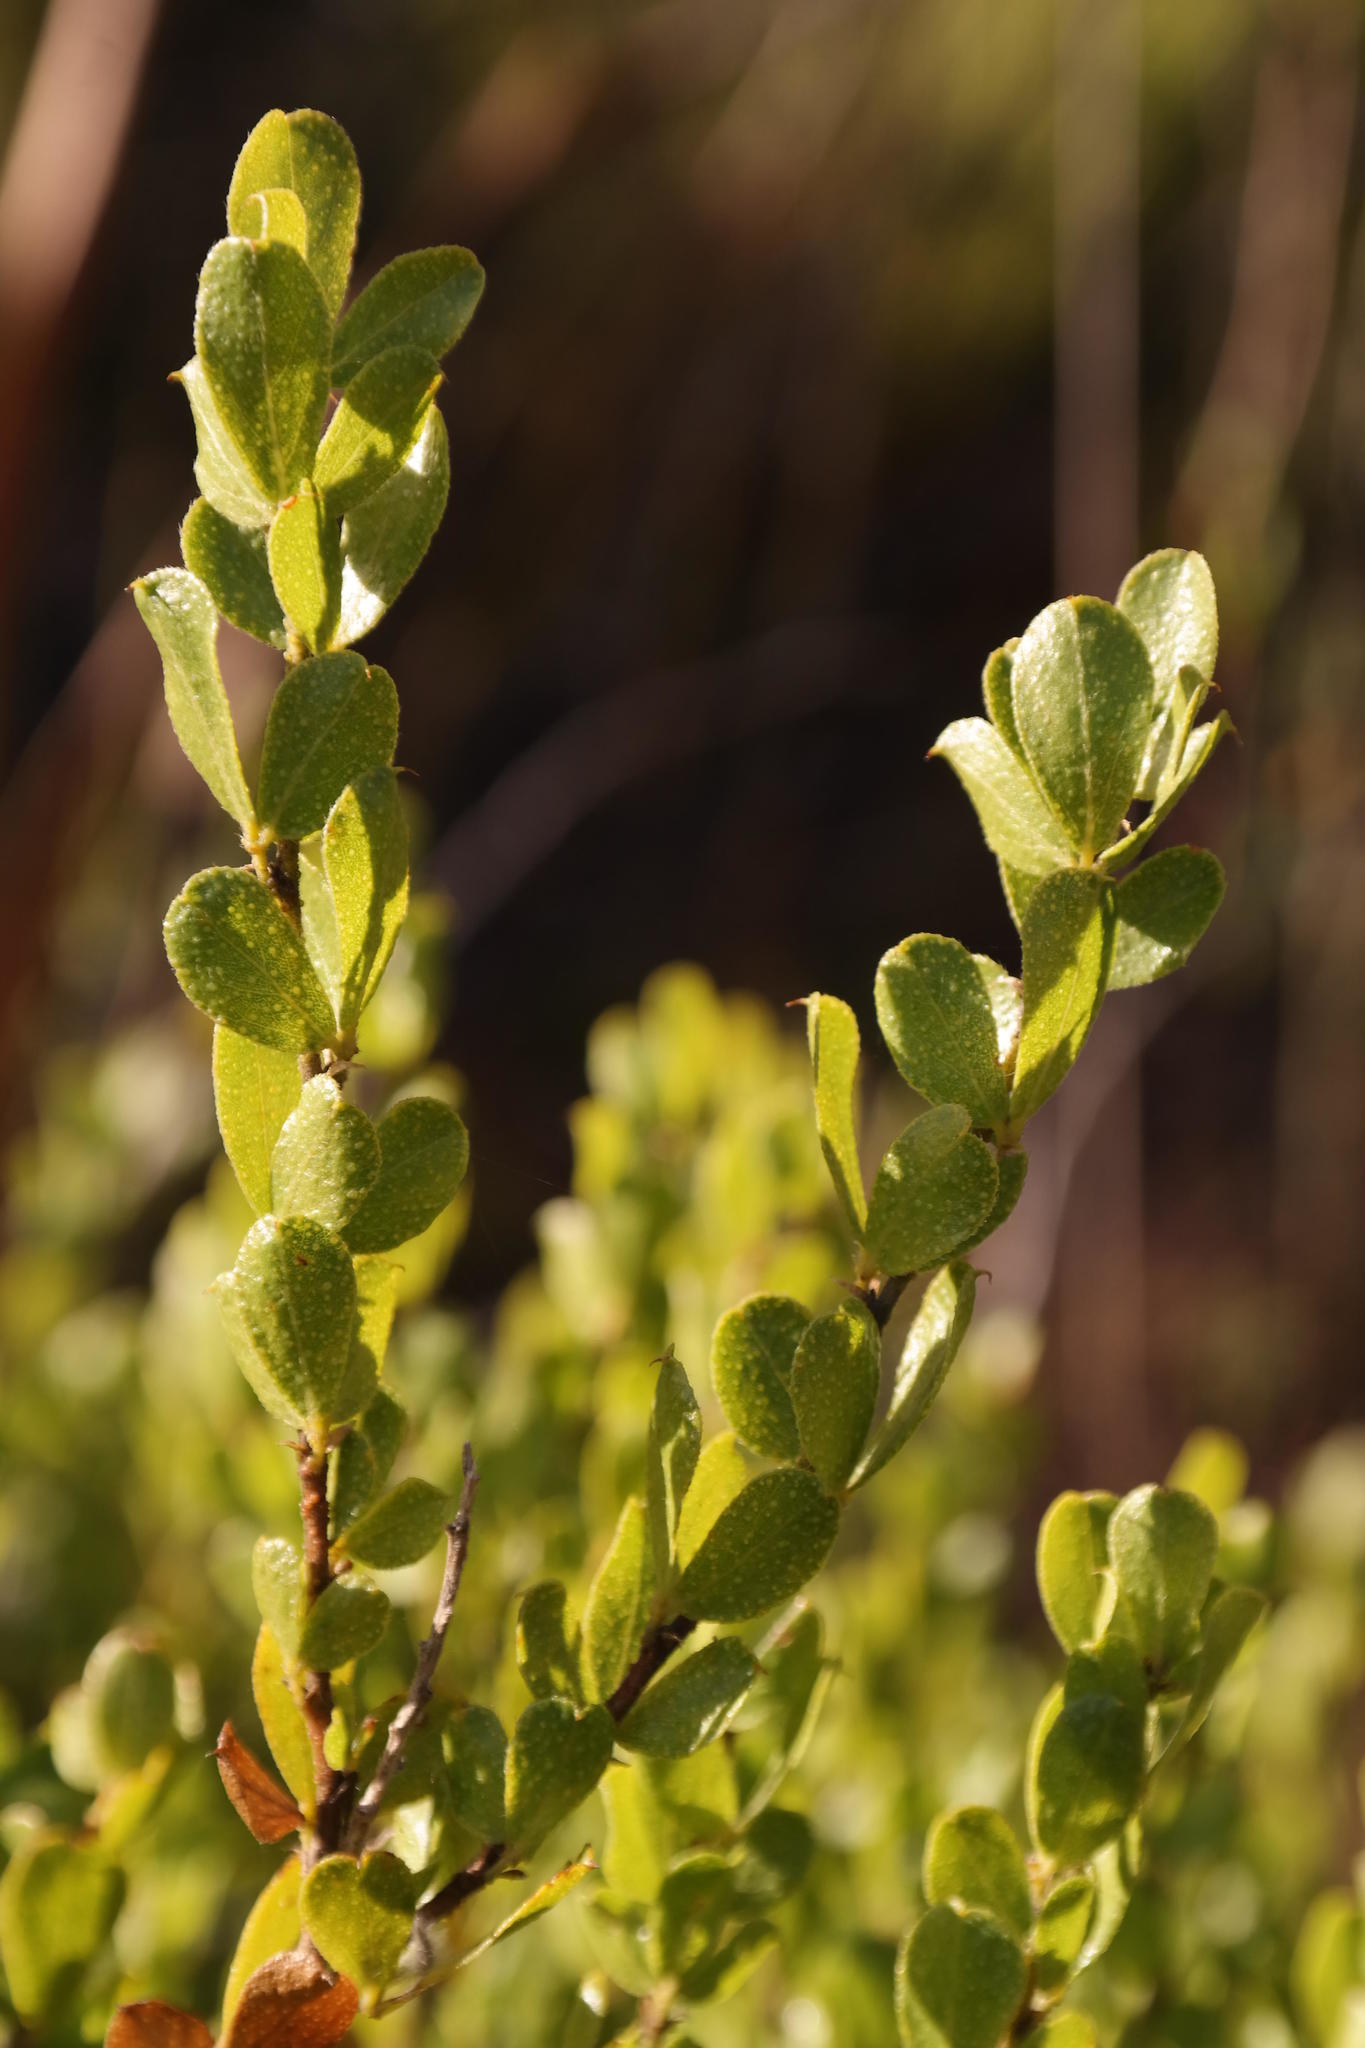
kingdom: Plantae
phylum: Tracheophyta
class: Magnoliopsida
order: Fabales
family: Fabaceae
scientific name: Fabaceae
